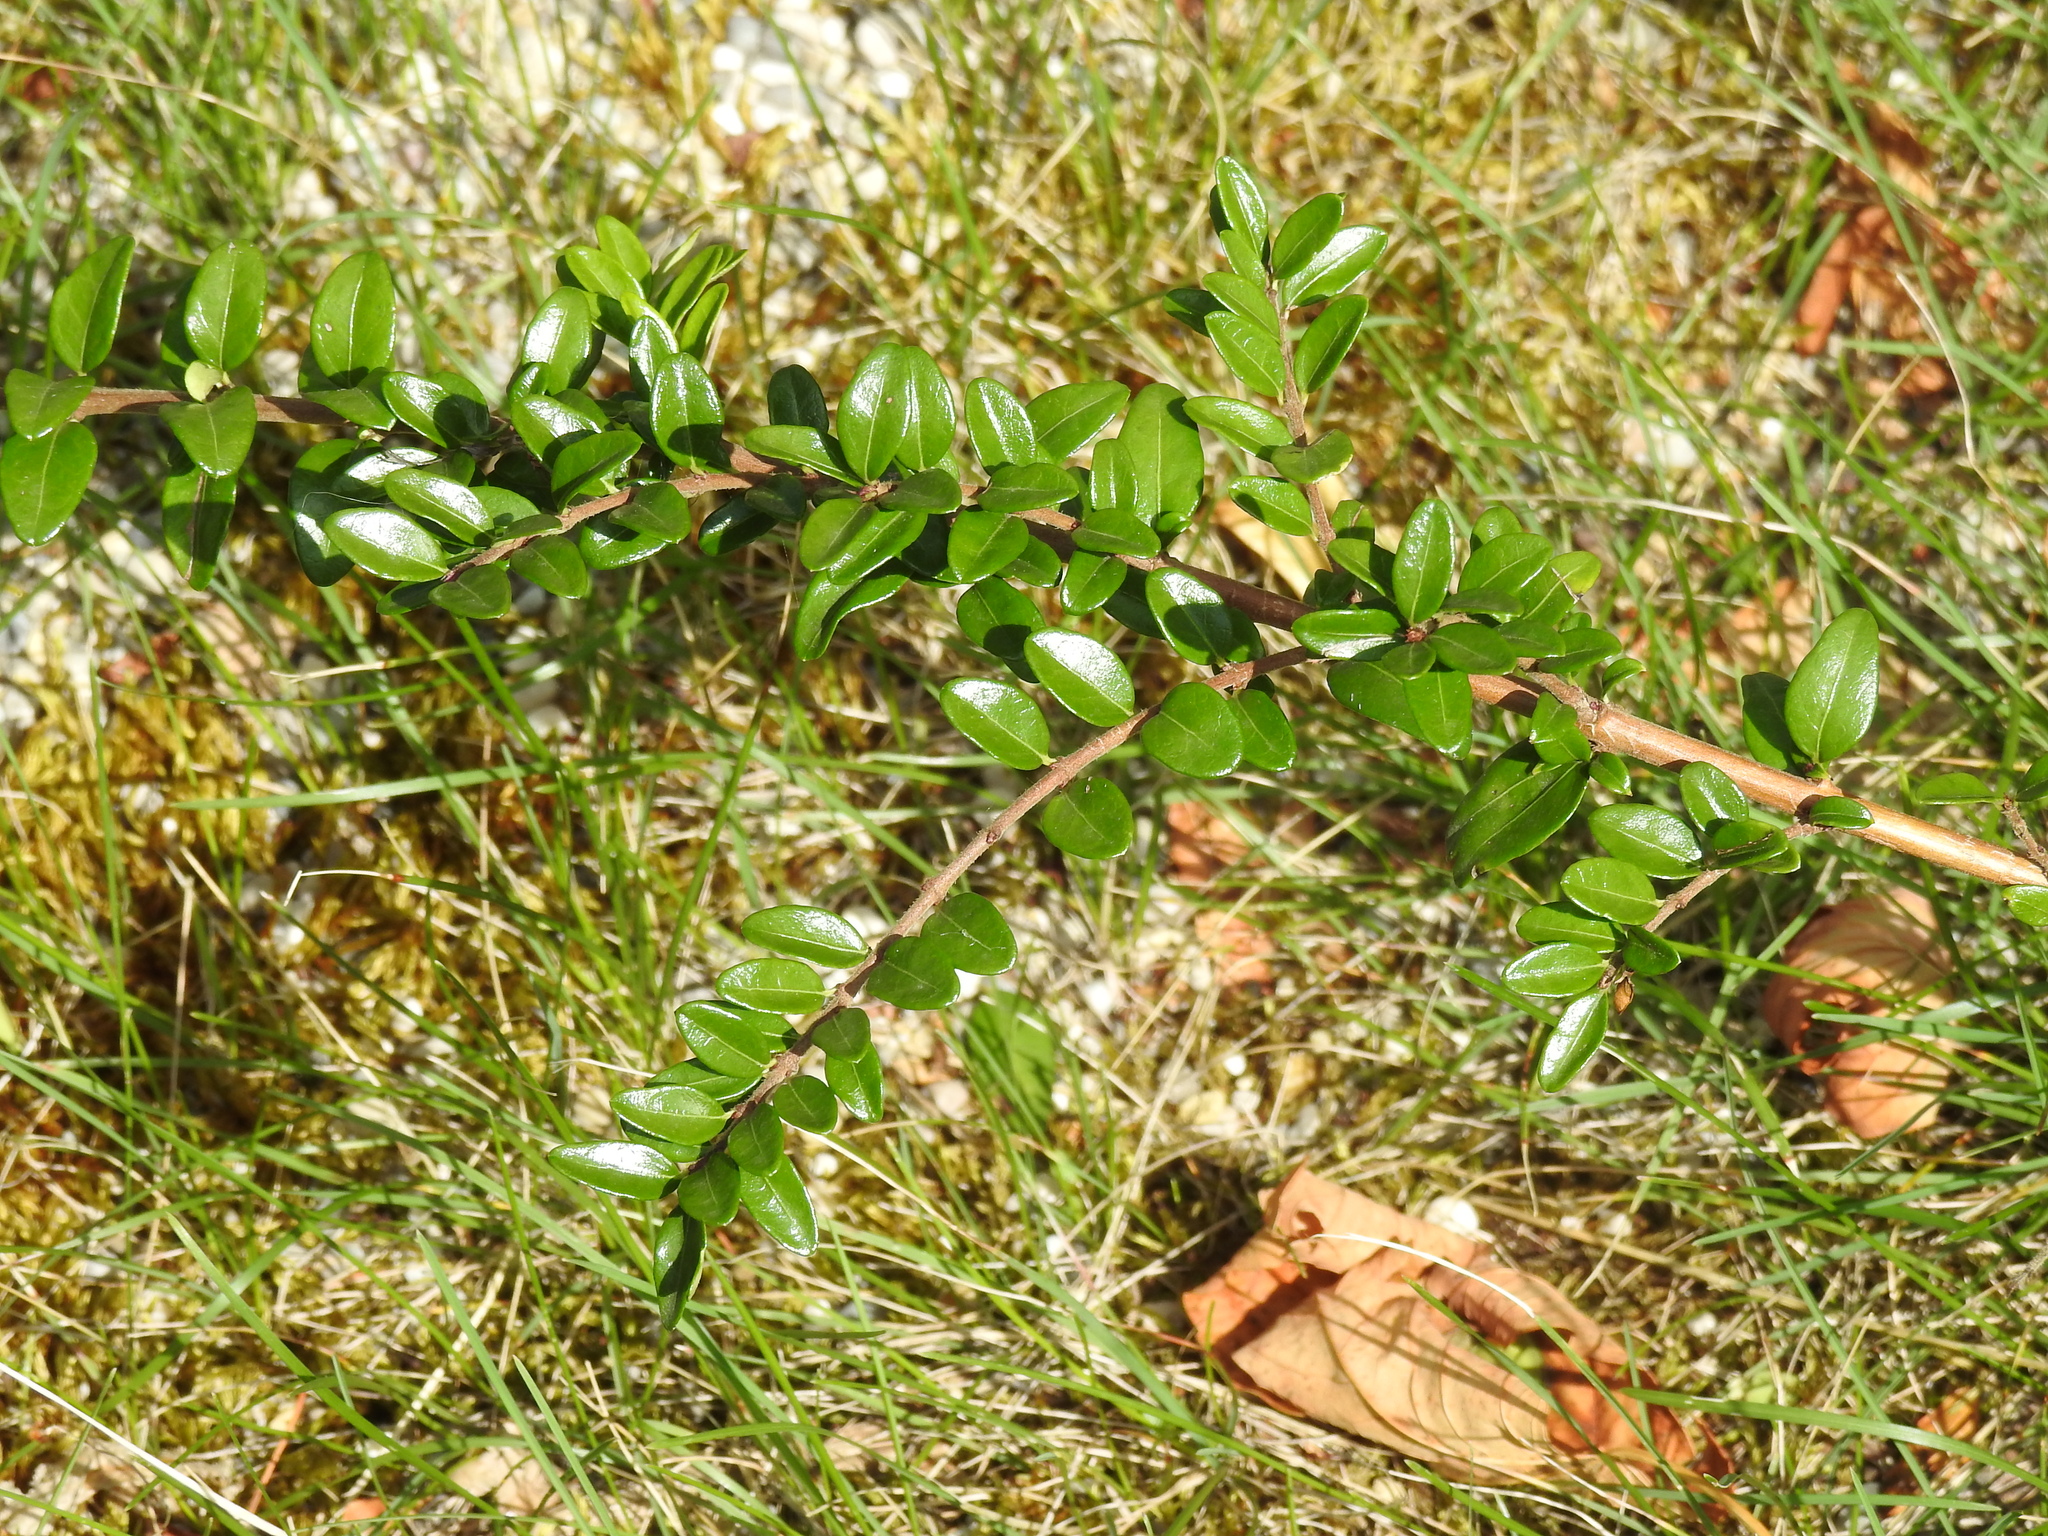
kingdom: Plantae
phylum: Tracheophyta
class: Magnoliopsida
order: Dipsacales
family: Caprifoliaceae
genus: Lonicera
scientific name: Lonicera ligustrina
